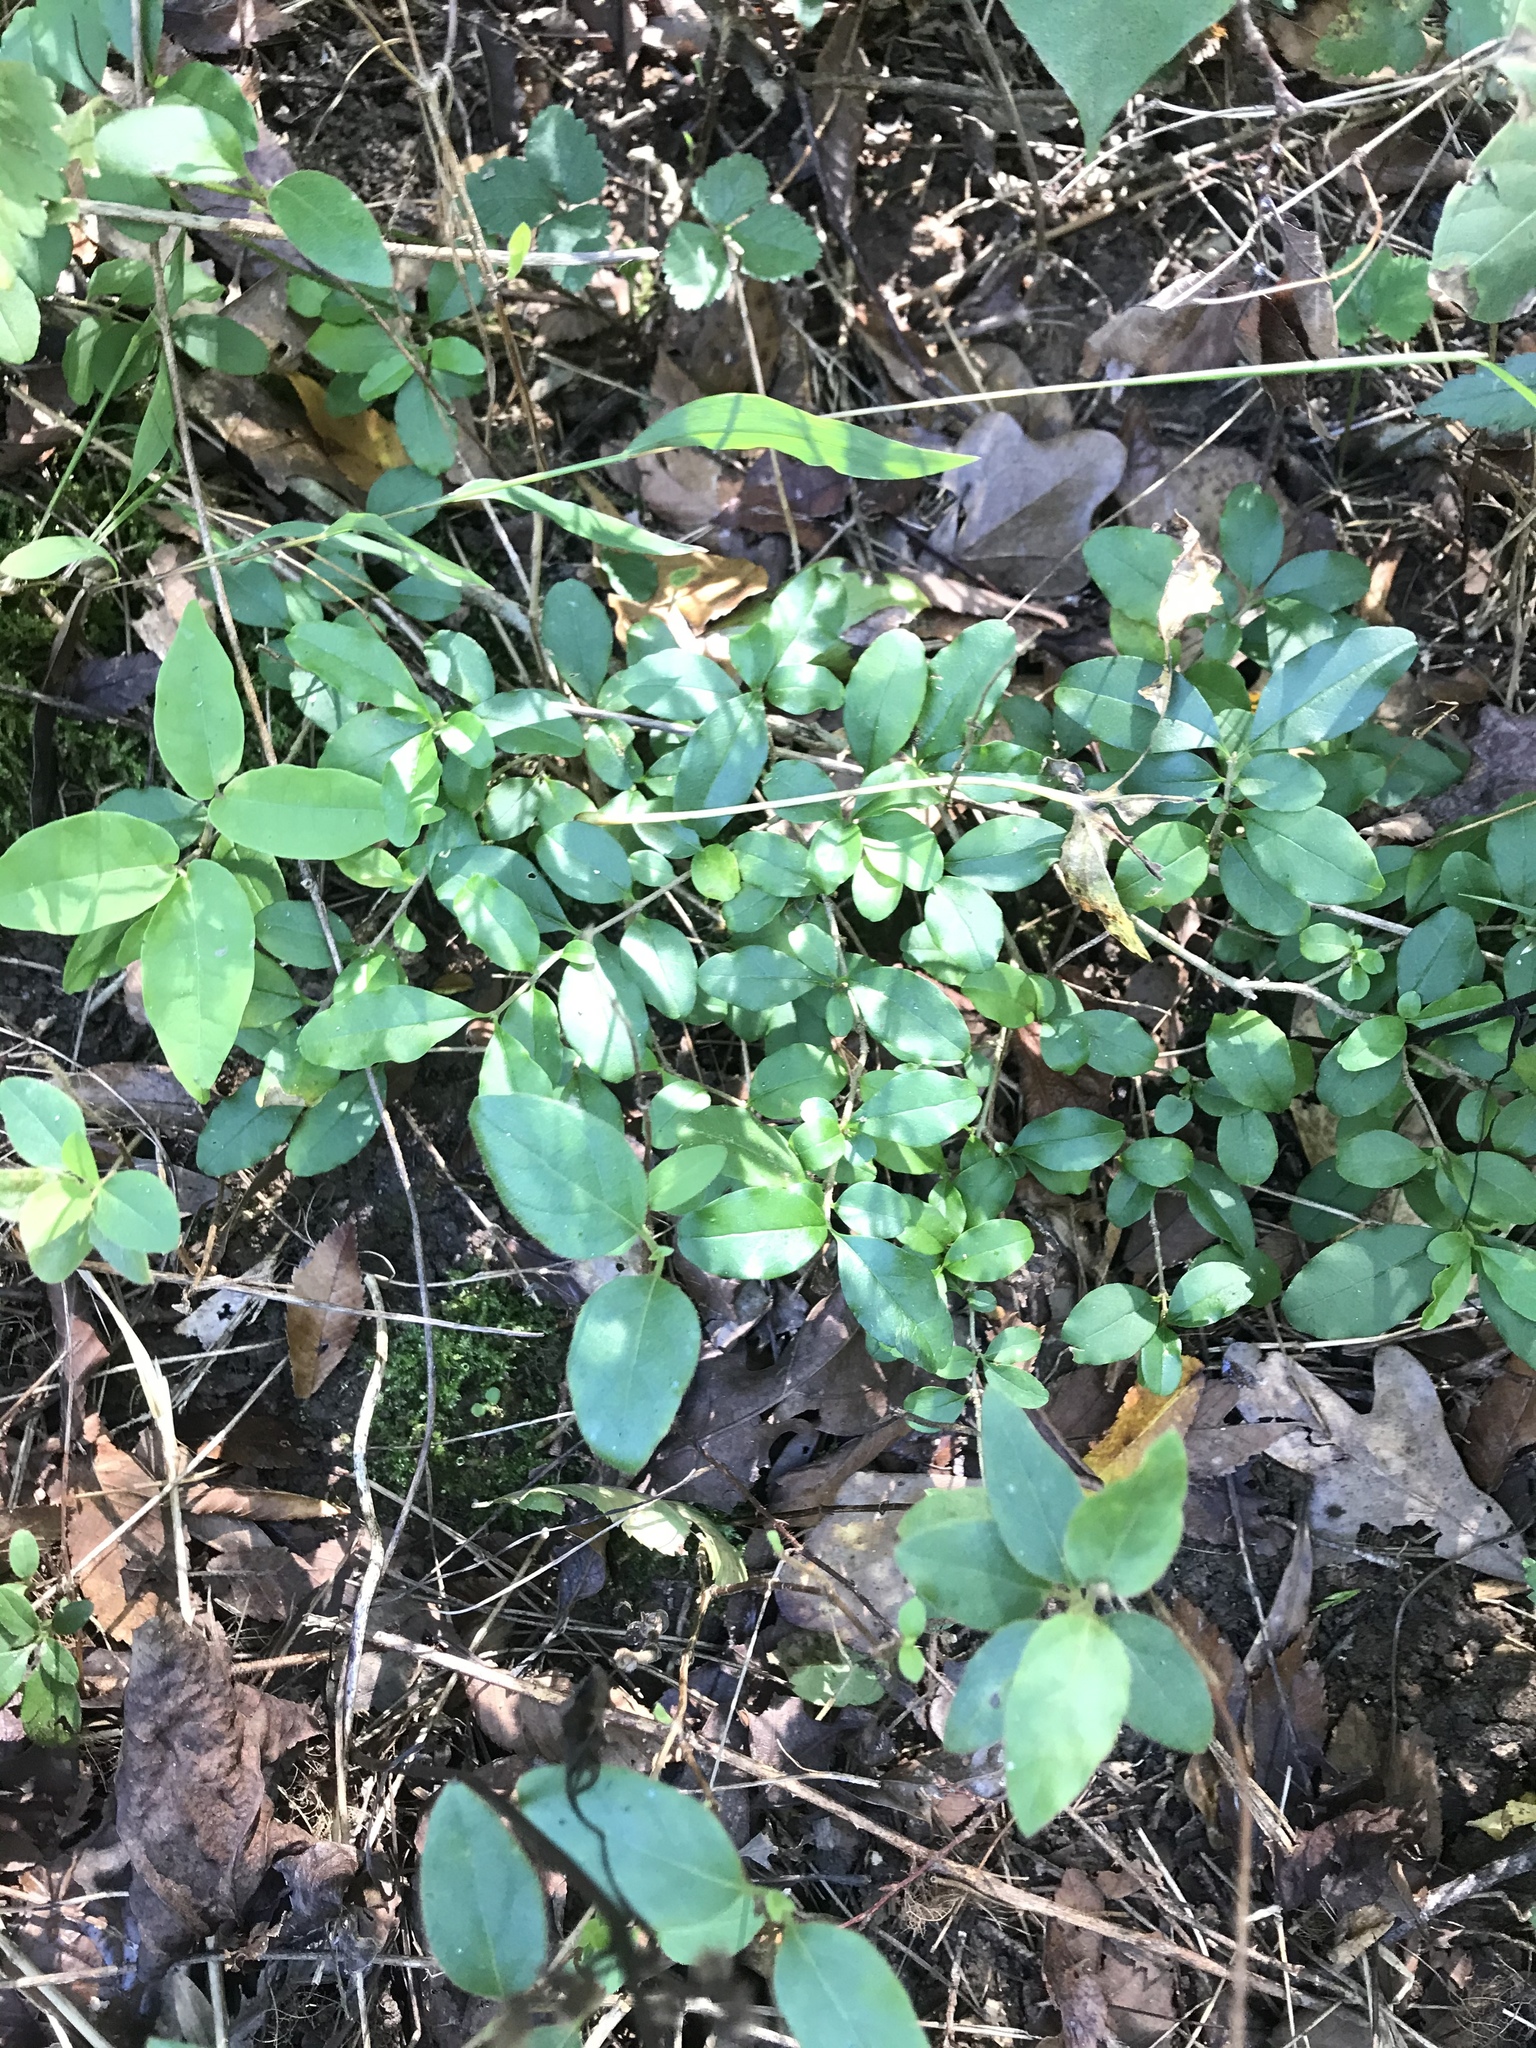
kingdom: Plantae
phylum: Tracheophyta
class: Magnoliopsida
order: Lamiales
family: Oleaceae
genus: Ligustrum
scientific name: Ligustrum sinense
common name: Chinese privet
